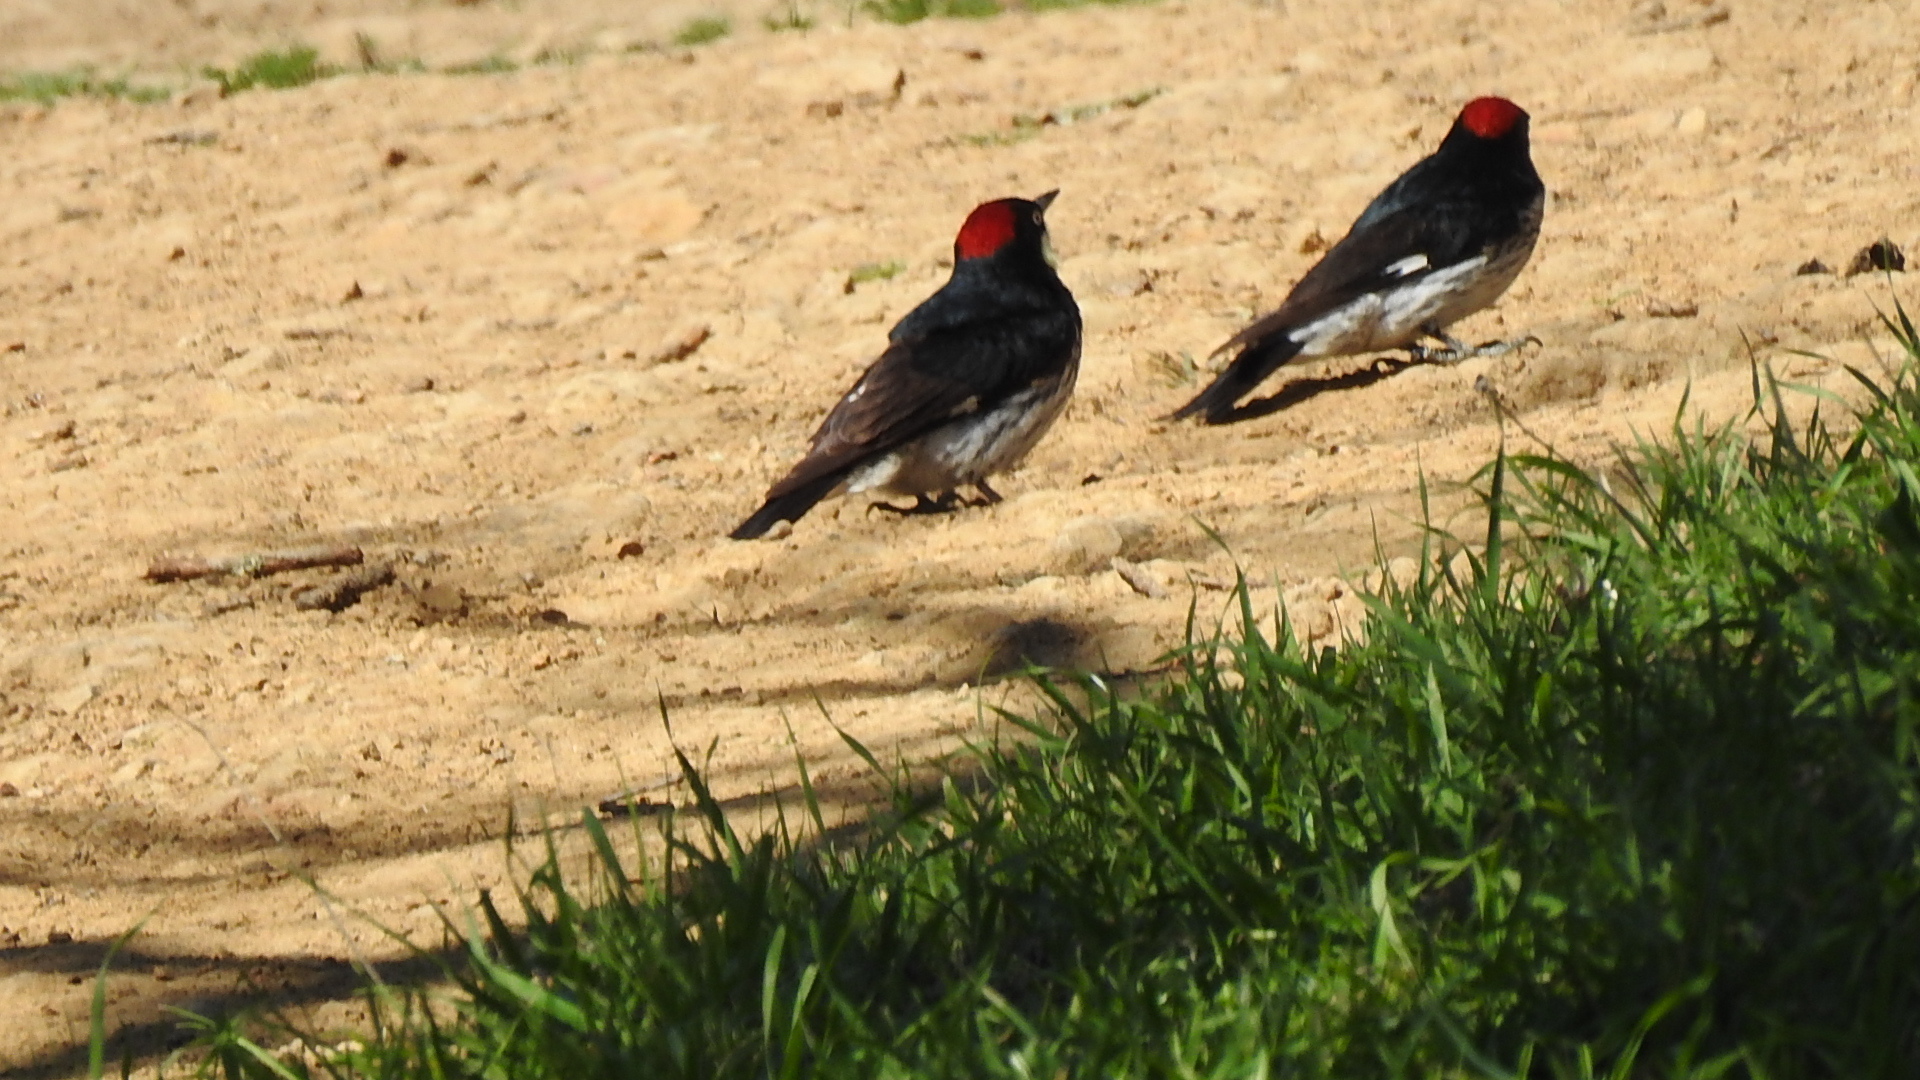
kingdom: Animalia
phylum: Chordata
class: Aves
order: Piciformes
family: Picidae
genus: Melanerpes
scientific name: Melanerpes formicivorus
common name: Acorn woodpecker
